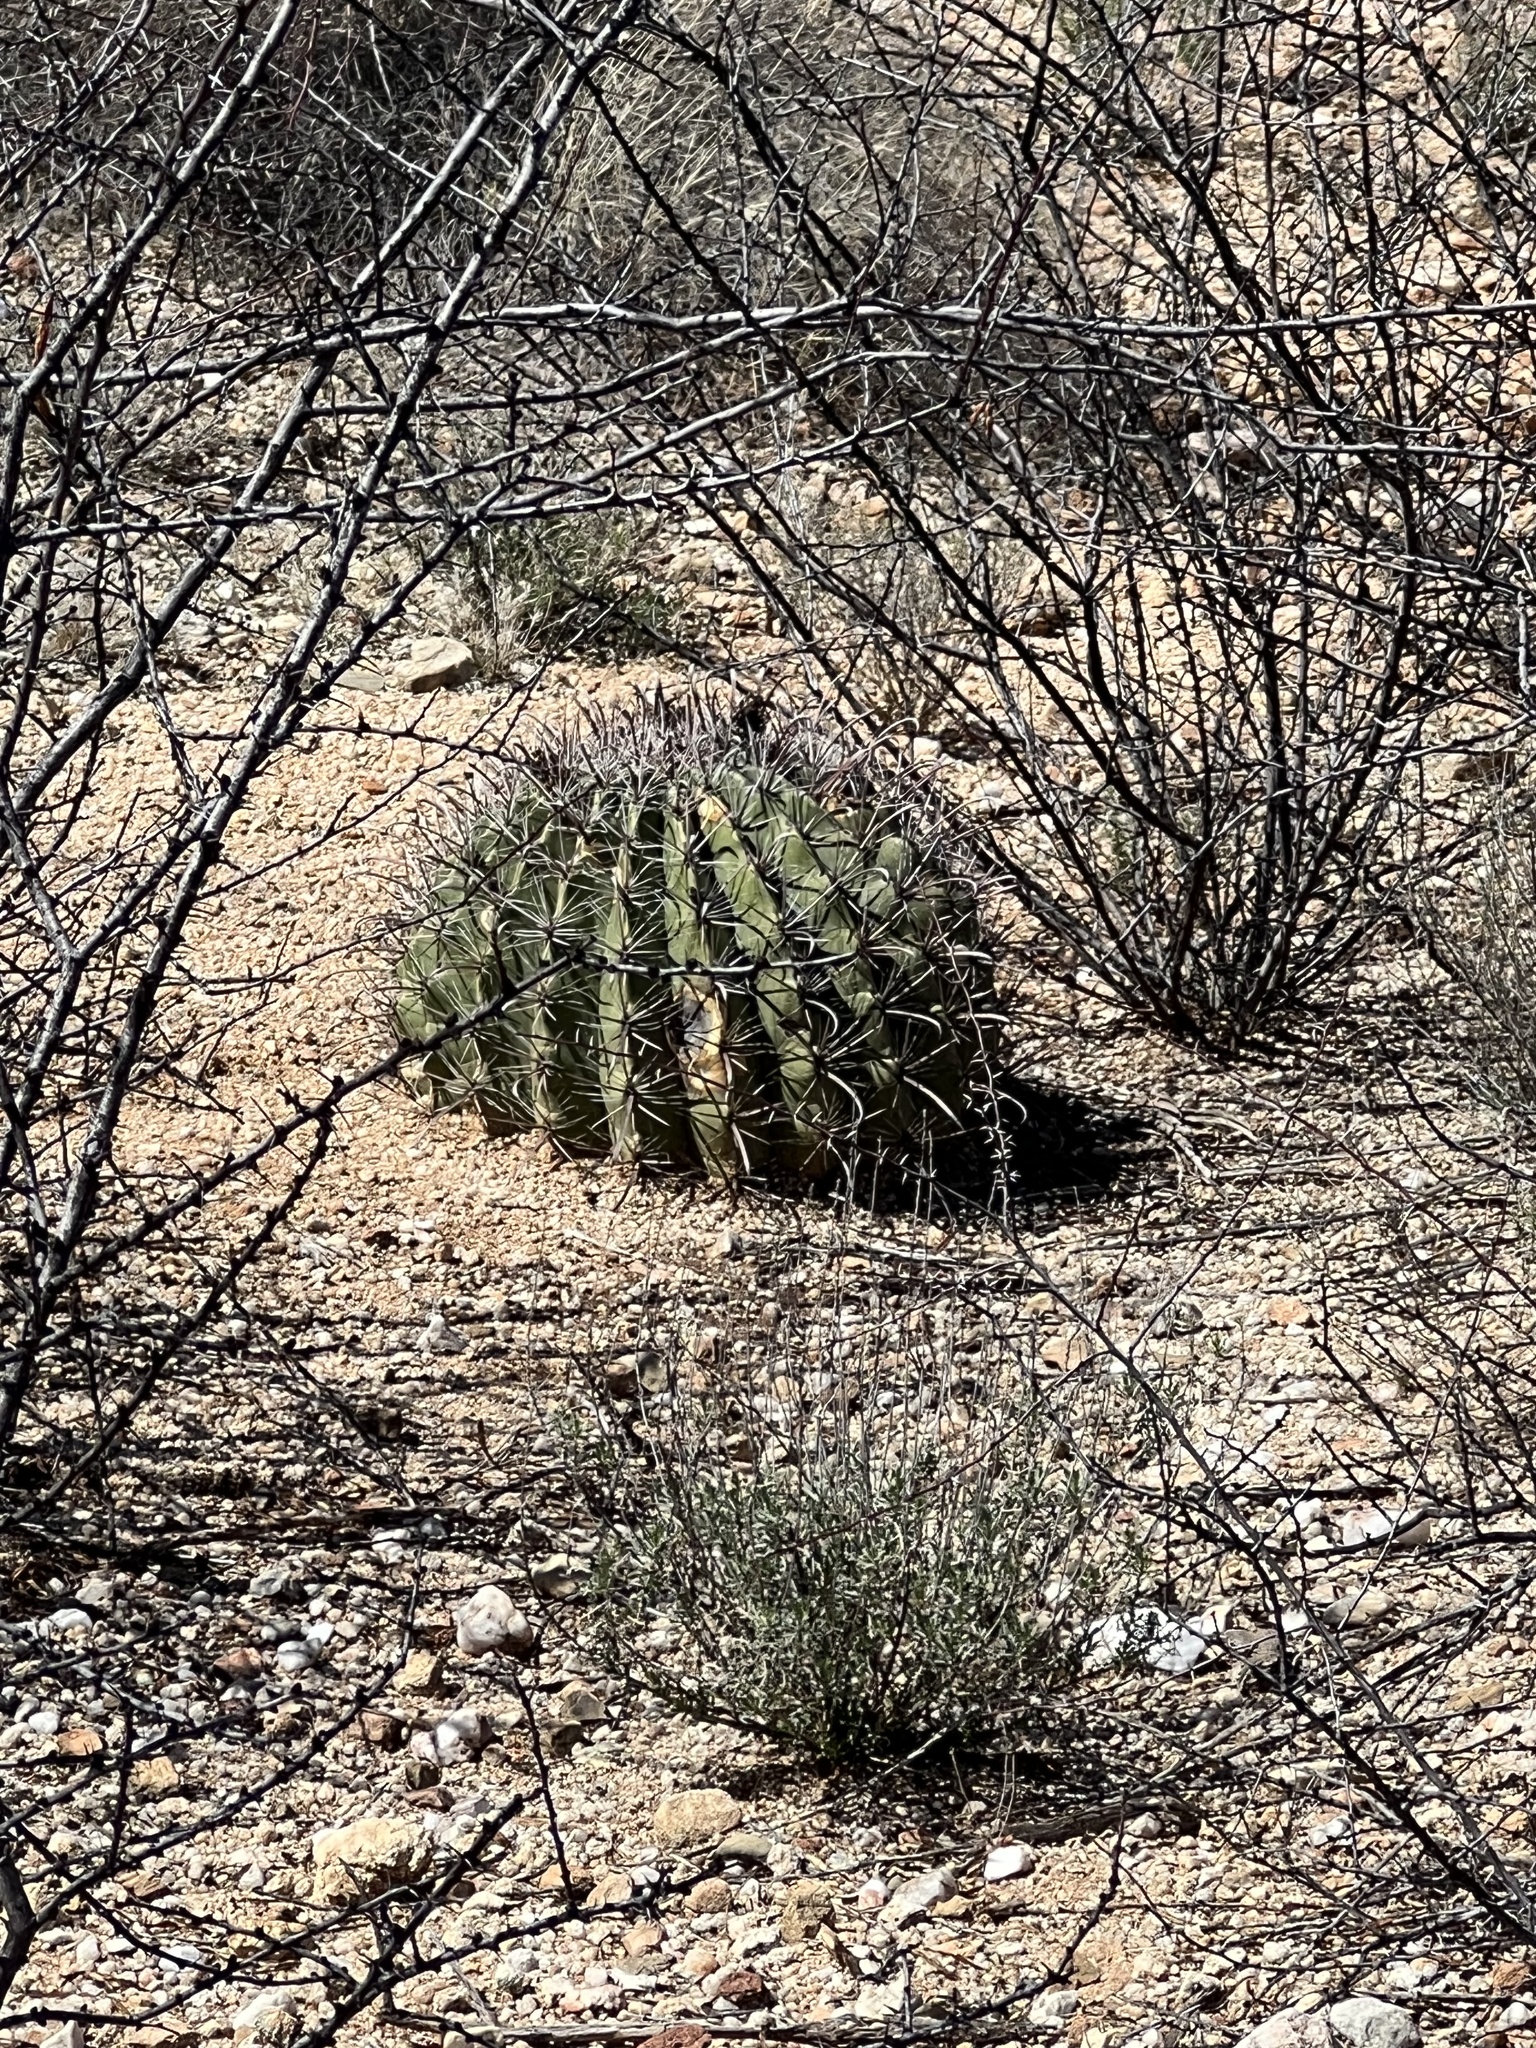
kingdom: Plantae
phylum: Tracheophyta
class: Magnoliopsida
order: Caryophyllales
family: Cactaceae
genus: Ferocactus
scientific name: Ferocactus wislizeni
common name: Candy barrel cactus
